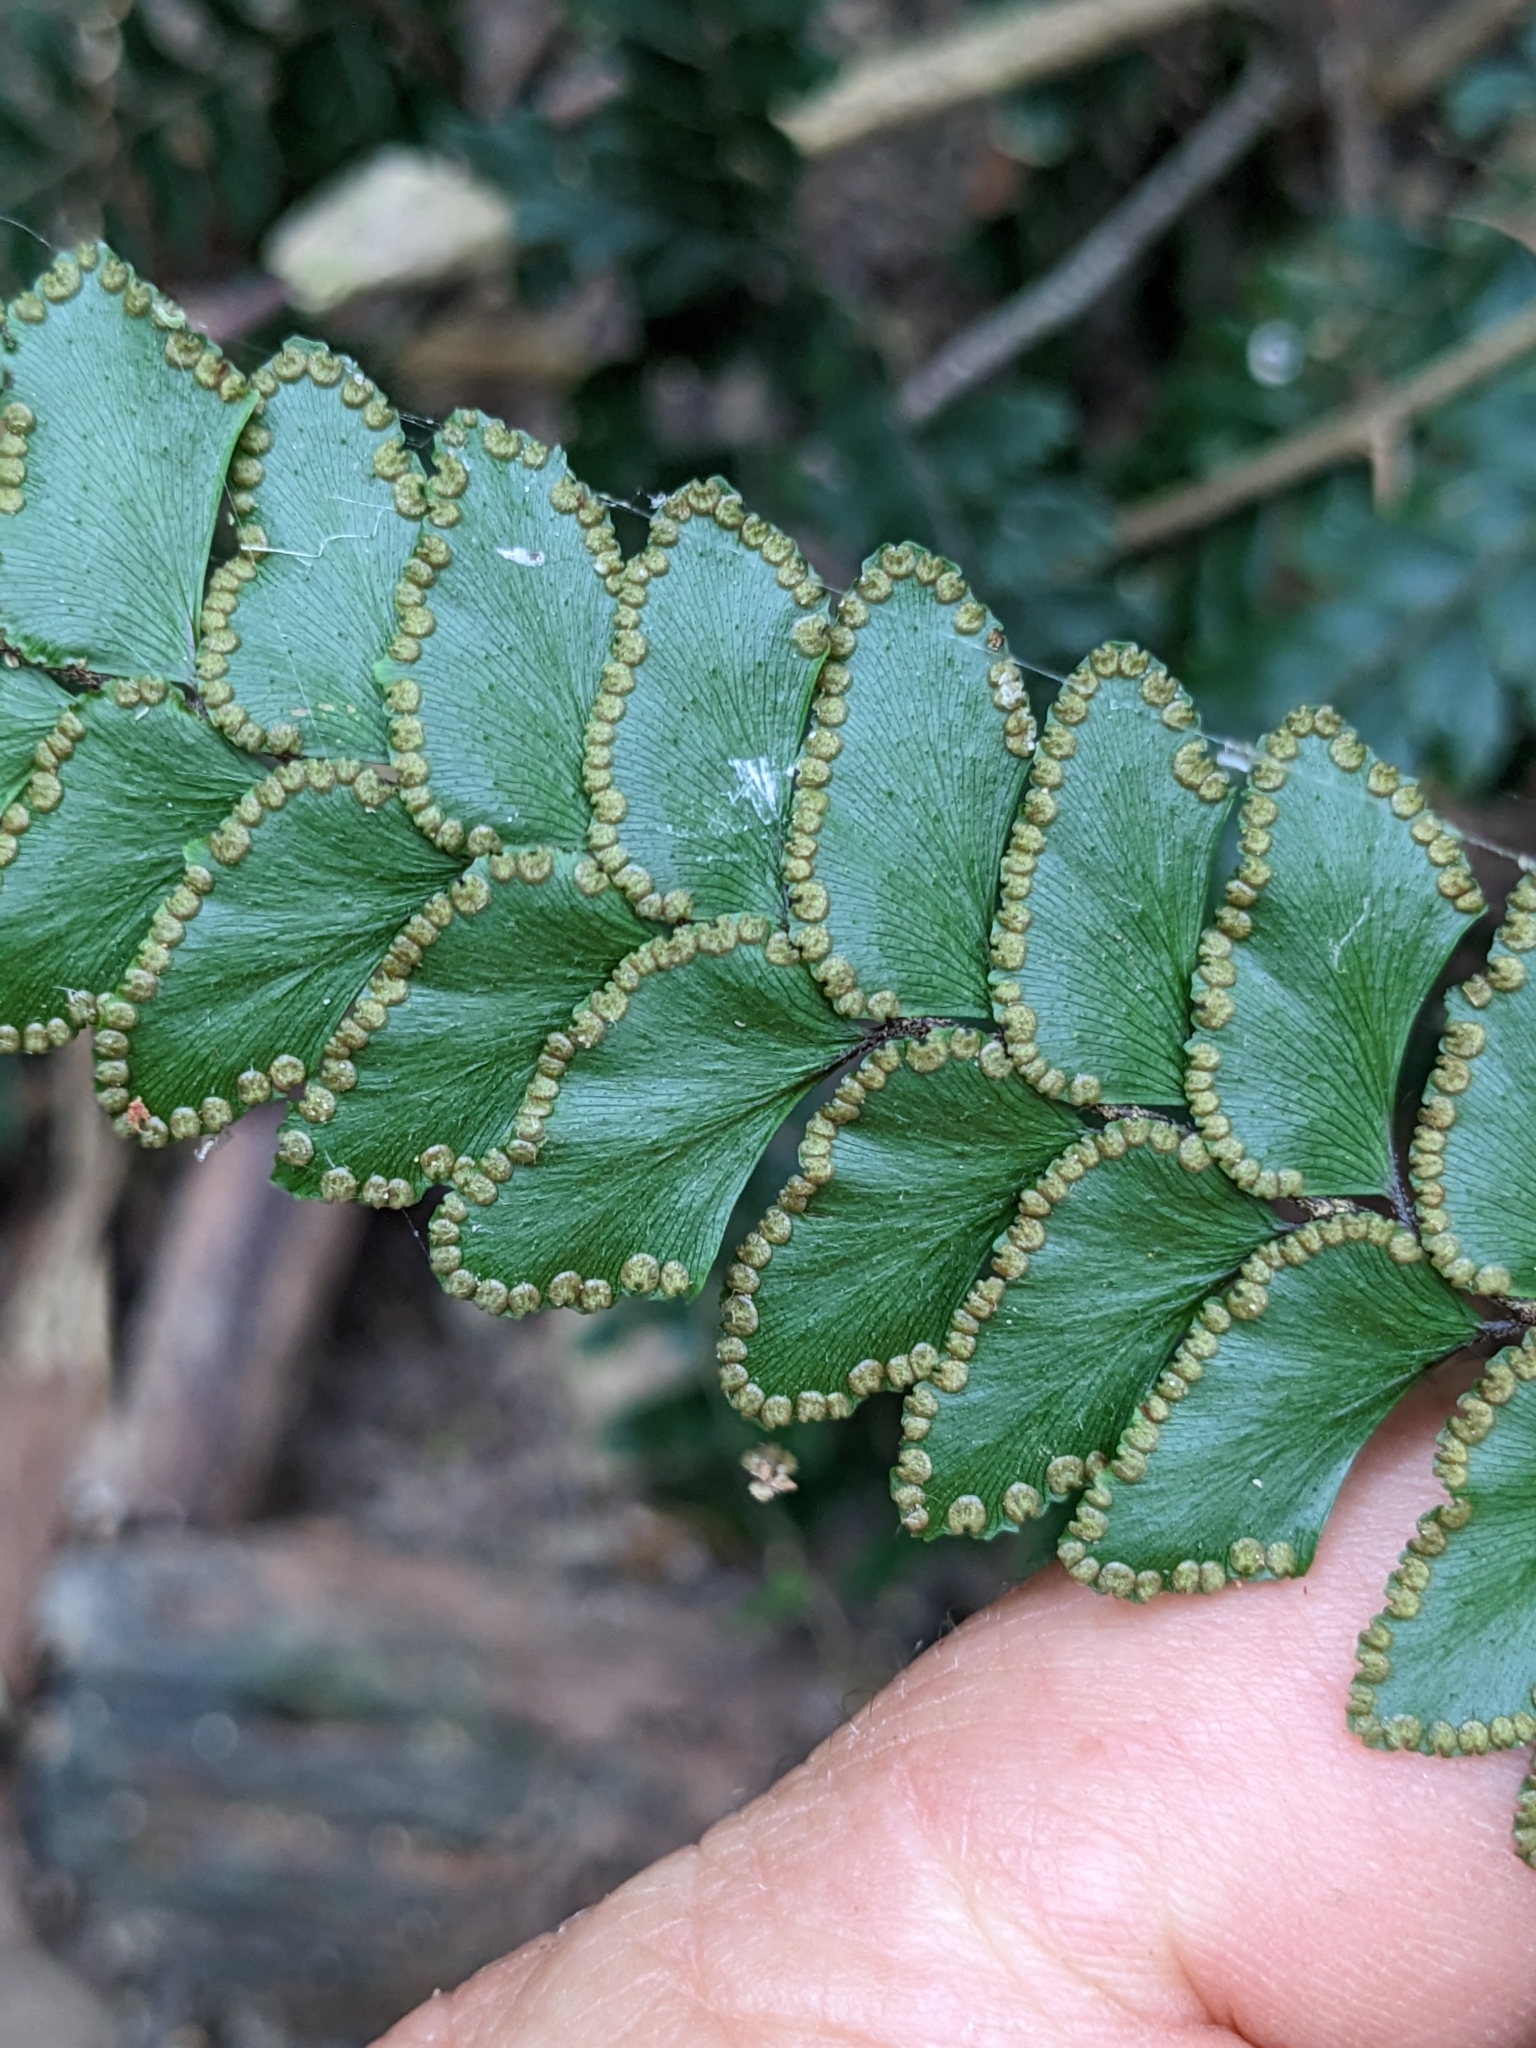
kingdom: Plantae
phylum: Tracheophyta
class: Polypodiopsida
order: Polypodiales
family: Pteridaceae
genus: Adiantum
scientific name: Adiantum hispidulum
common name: Rough maidenhair
